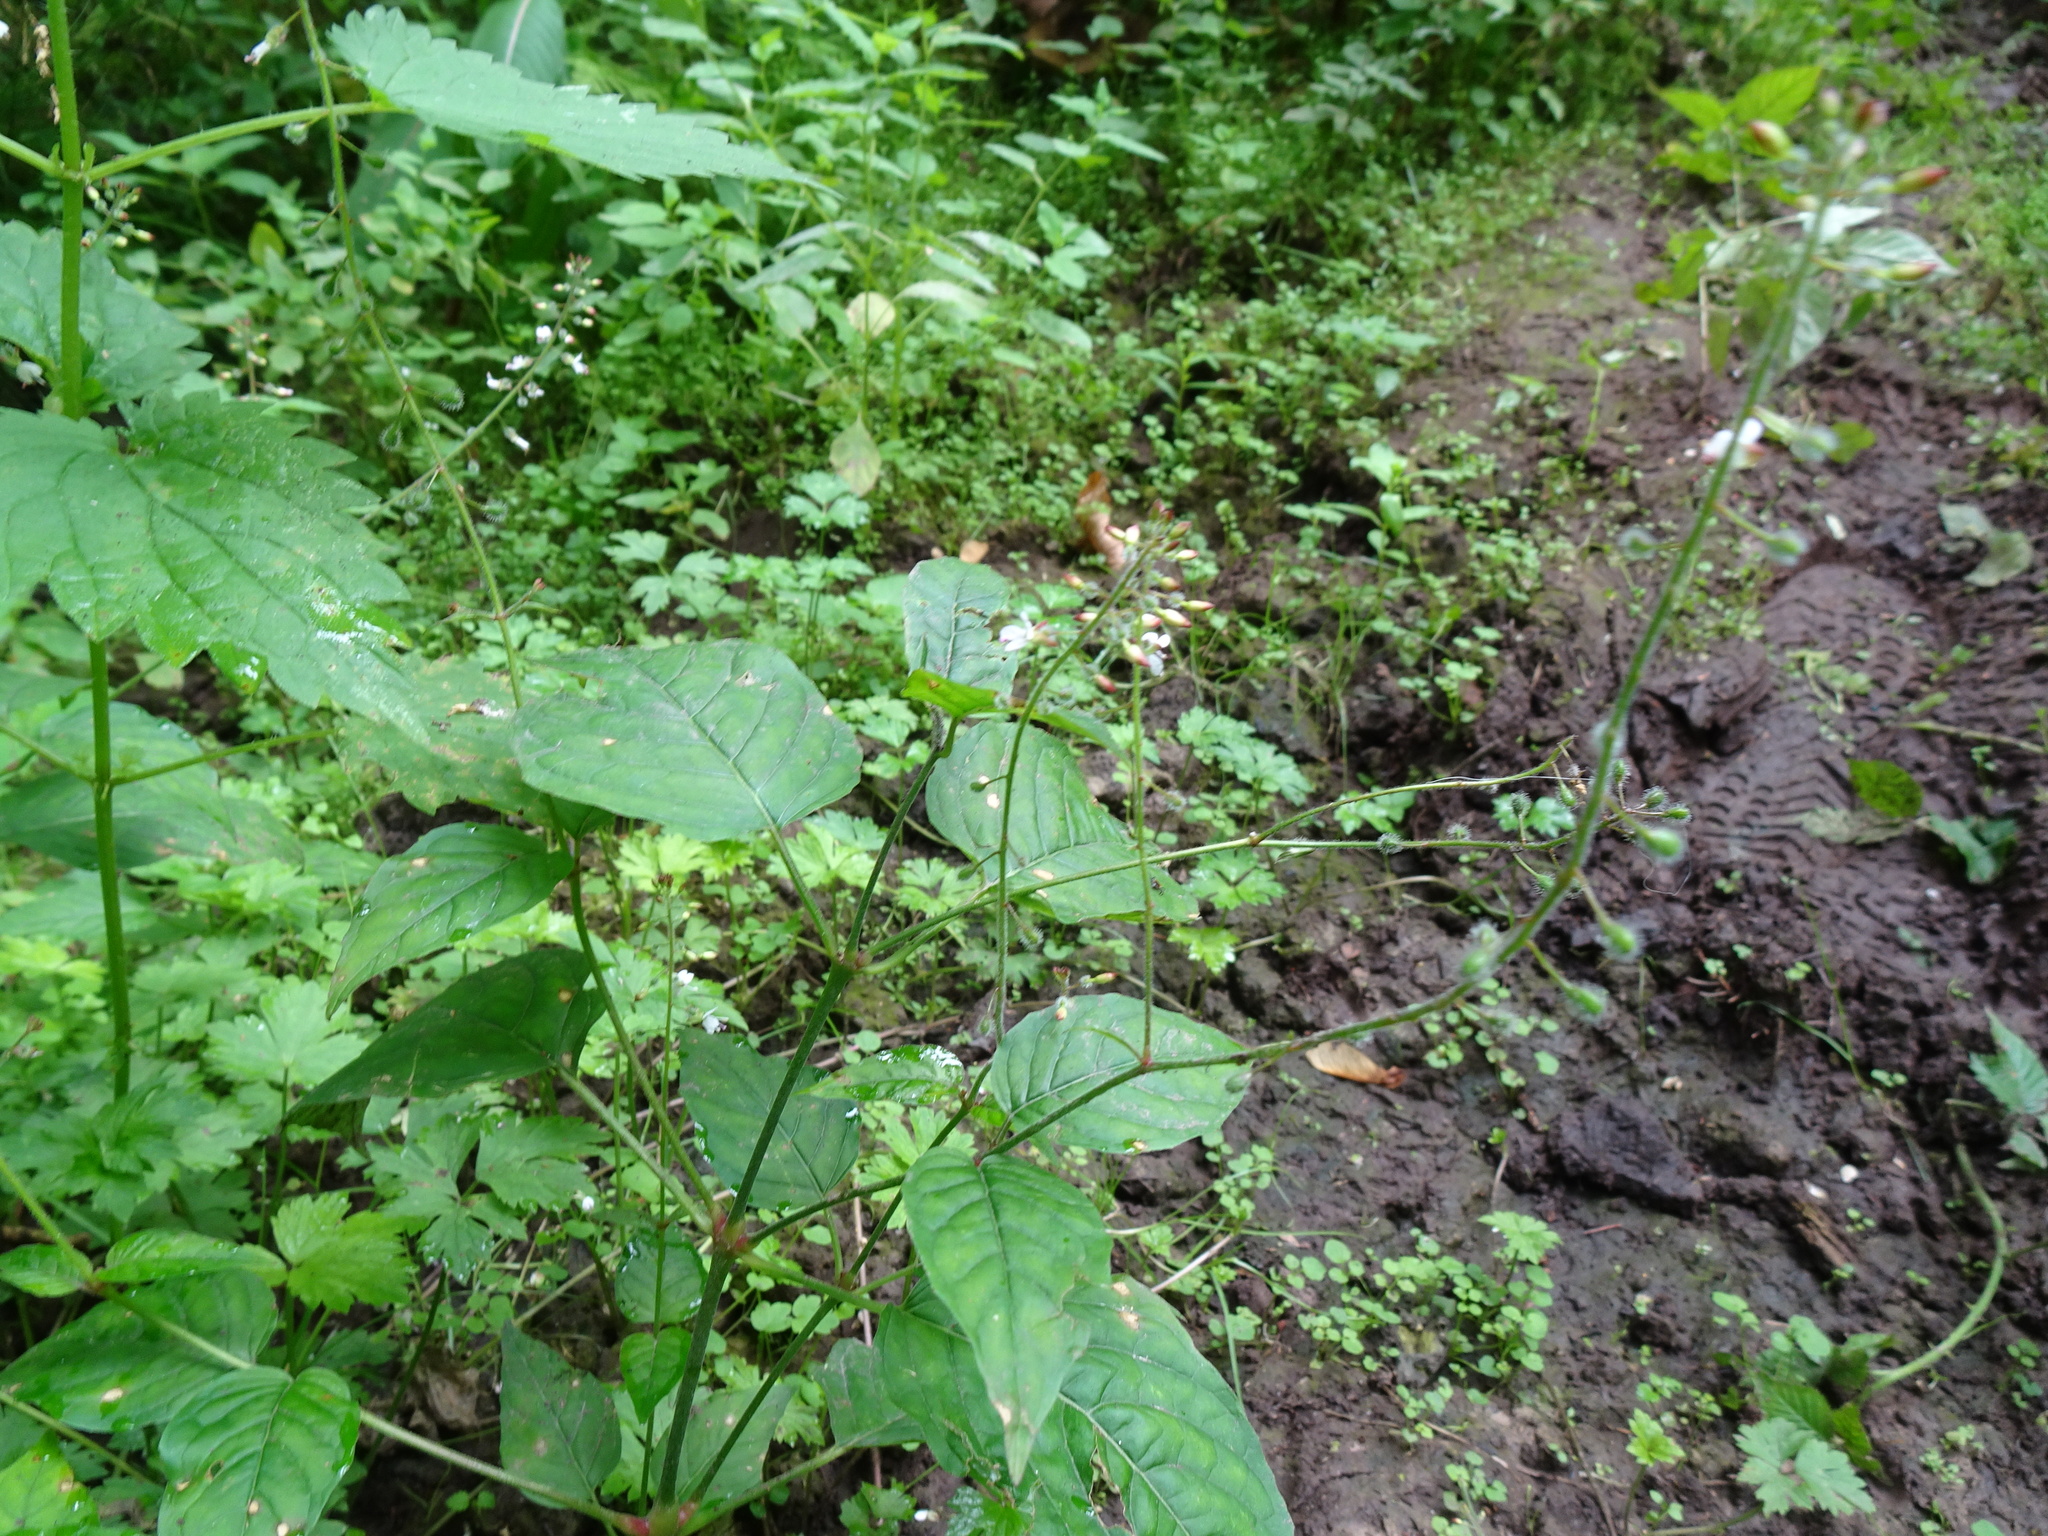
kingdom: Plantae
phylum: Tracheophyta
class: Magnoliopsida
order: Myrtales
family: Onagraceae
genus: Circaea
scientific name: Circaea lutetiana
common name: Enchanter's-nightshade
